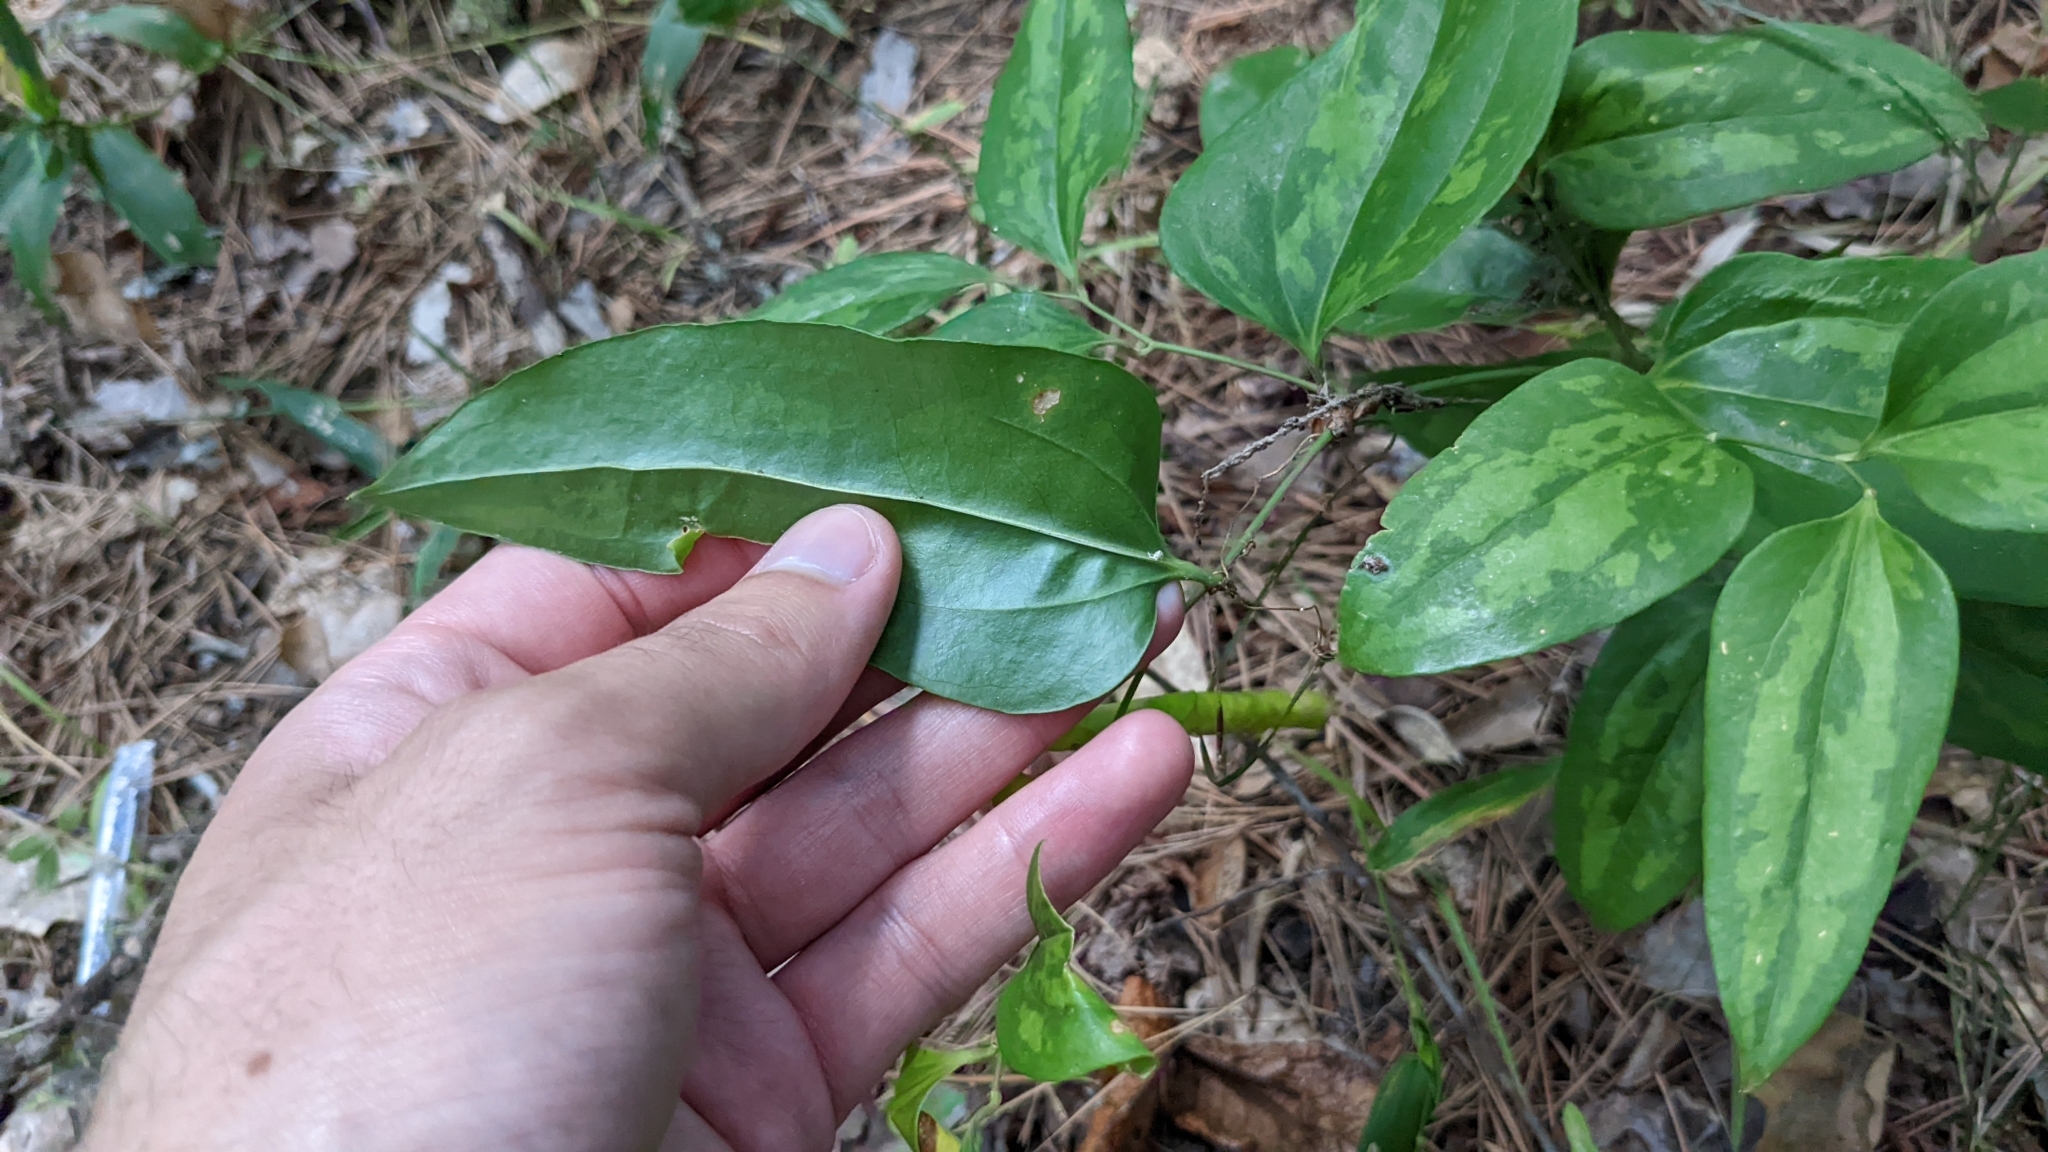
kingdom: Plantae
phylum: Tracheophyta
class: Liliopsida
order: Liliales
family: Smilacaceae
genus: Smilax
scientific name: Smilax maritima
